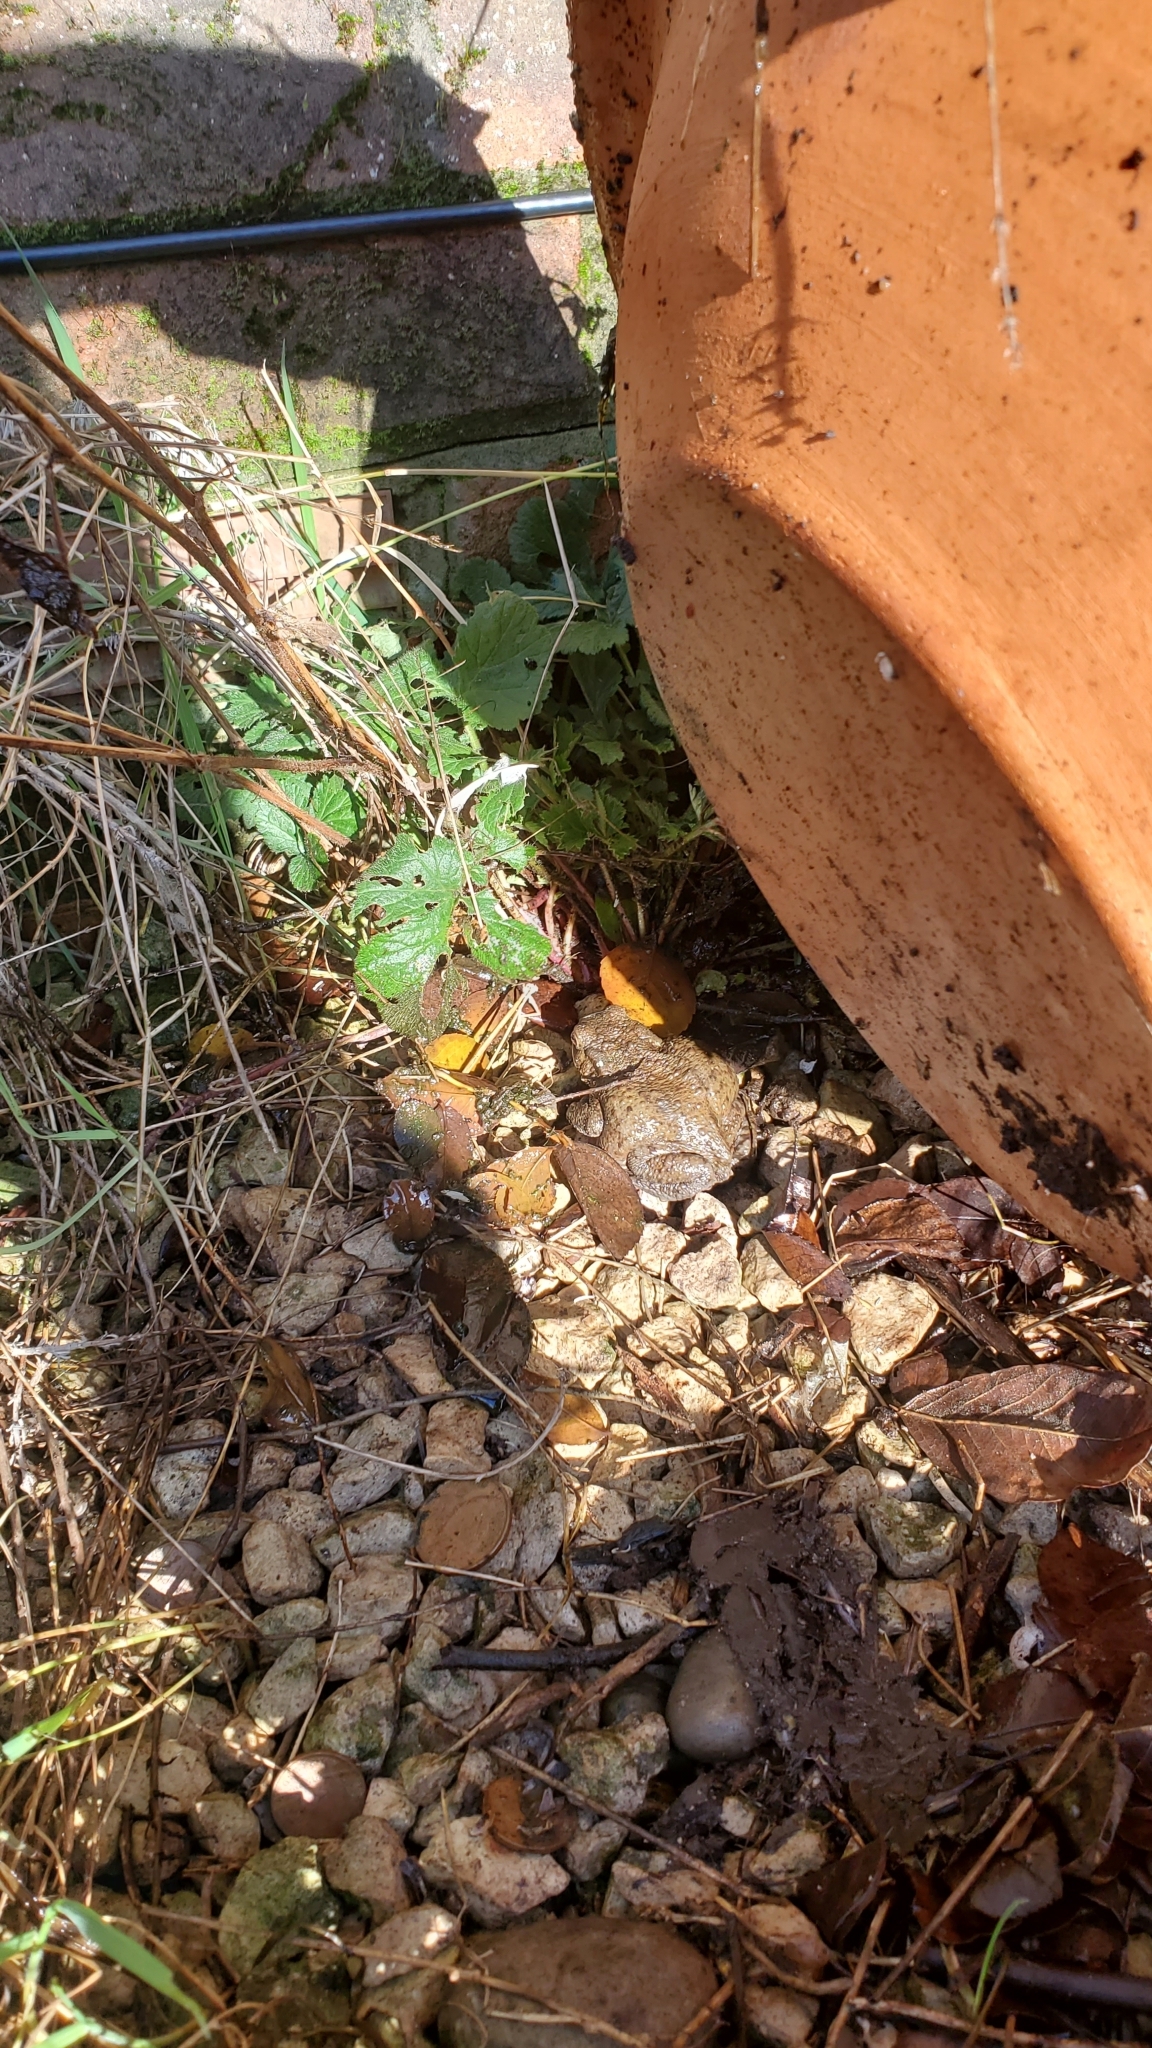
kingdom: Animalia
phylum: Chordata
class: Amphibia
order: Anura
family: Bufonidae
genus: Bufo
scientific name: Bufo bufo
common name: Common toad
